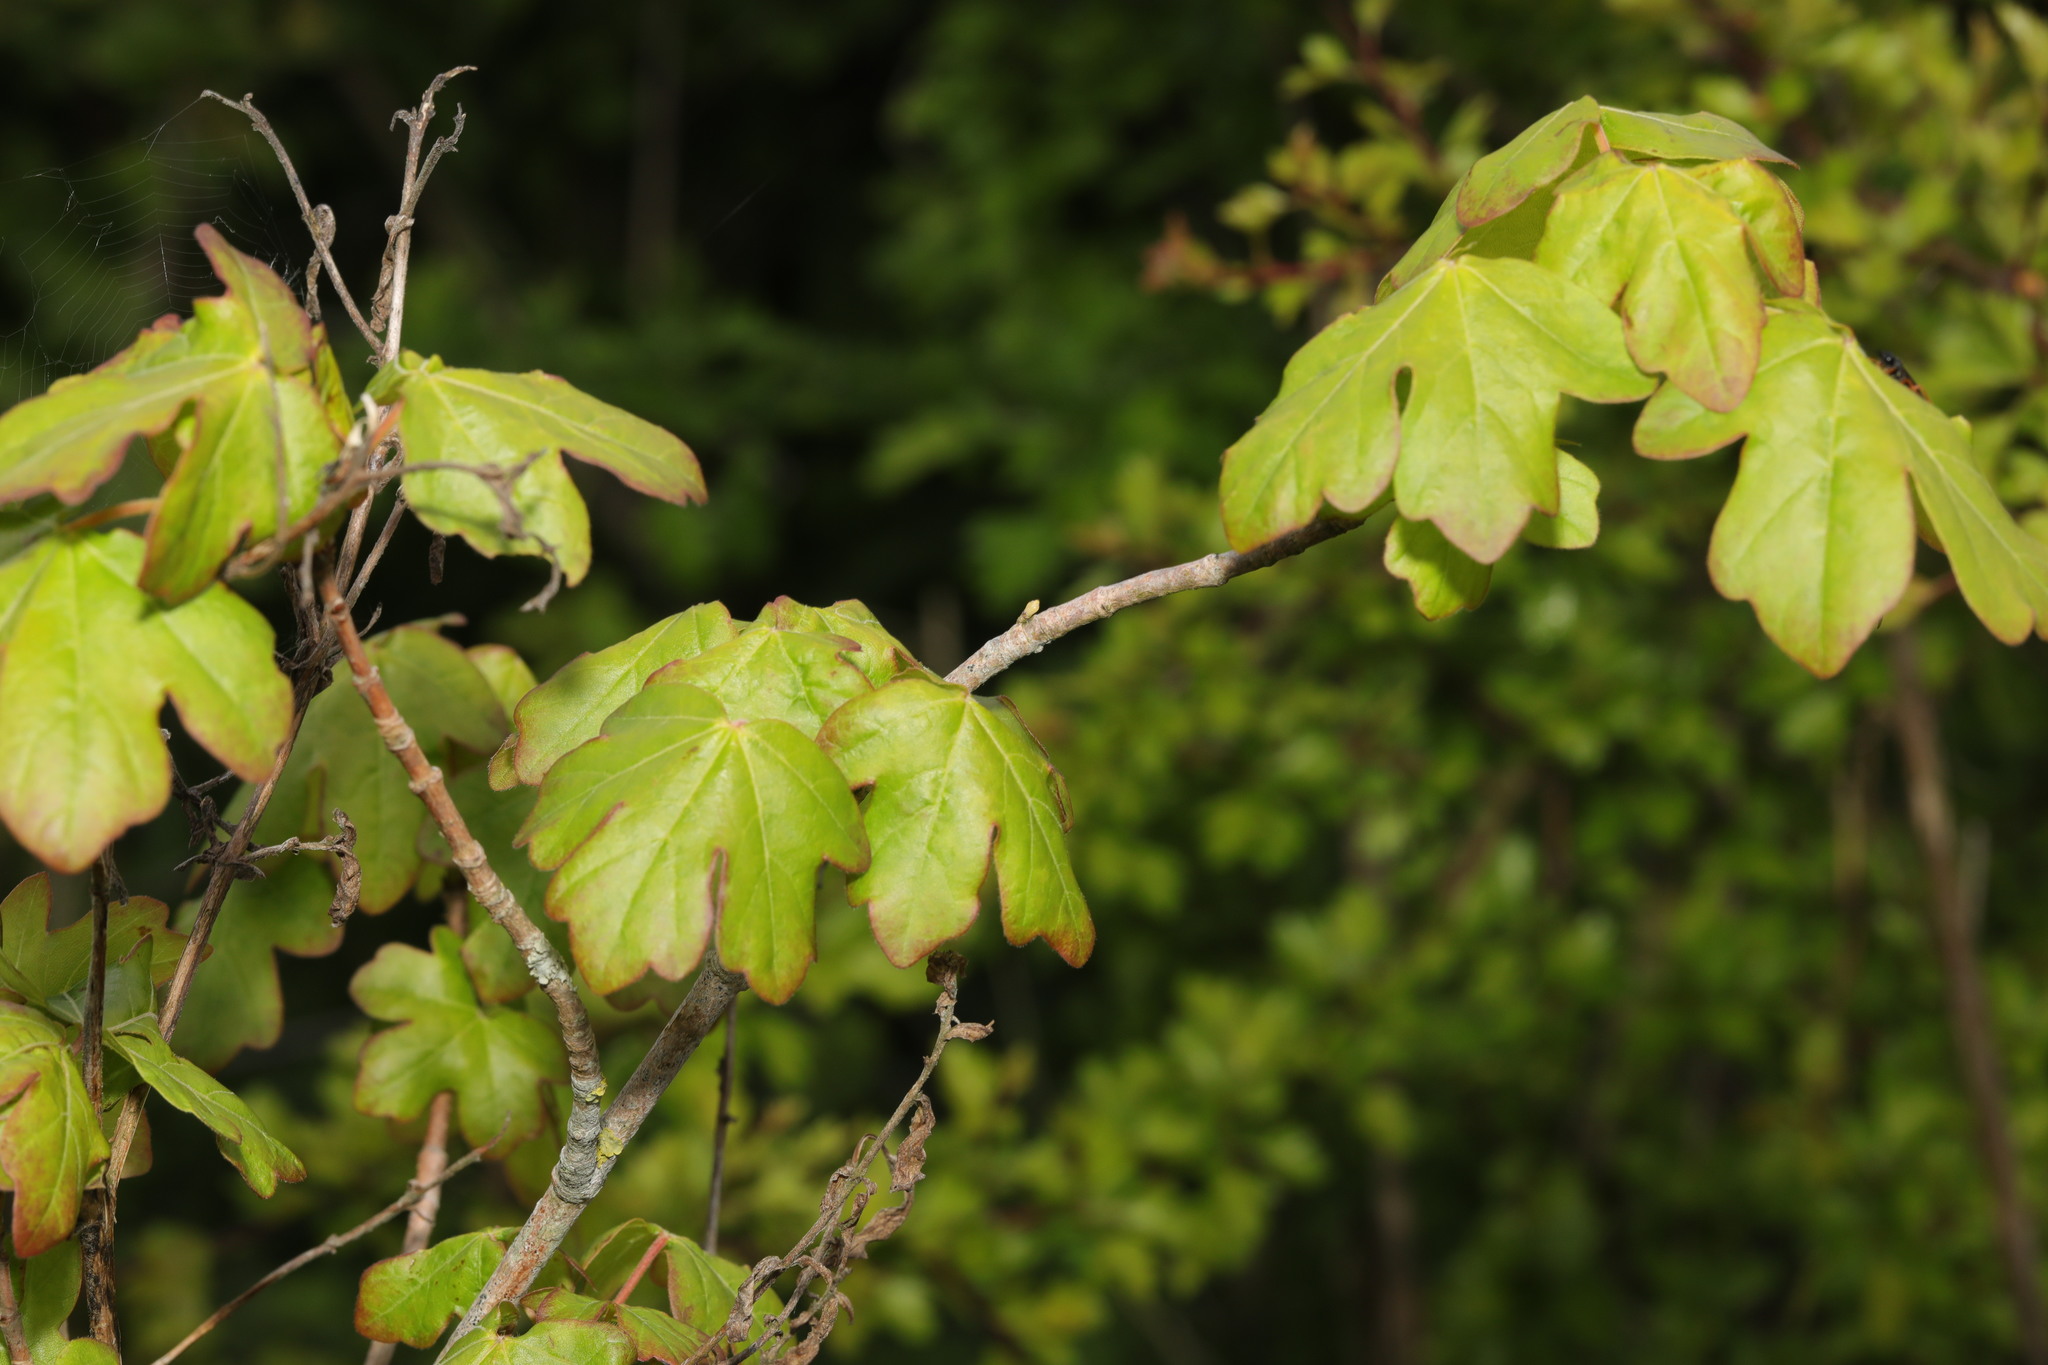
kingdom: Plantae
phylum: Tracheophyta
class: Magnoliopsida
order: Sapindales
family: Sapindaceae
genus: Acer
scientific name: Acer campestre
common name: Field maple
